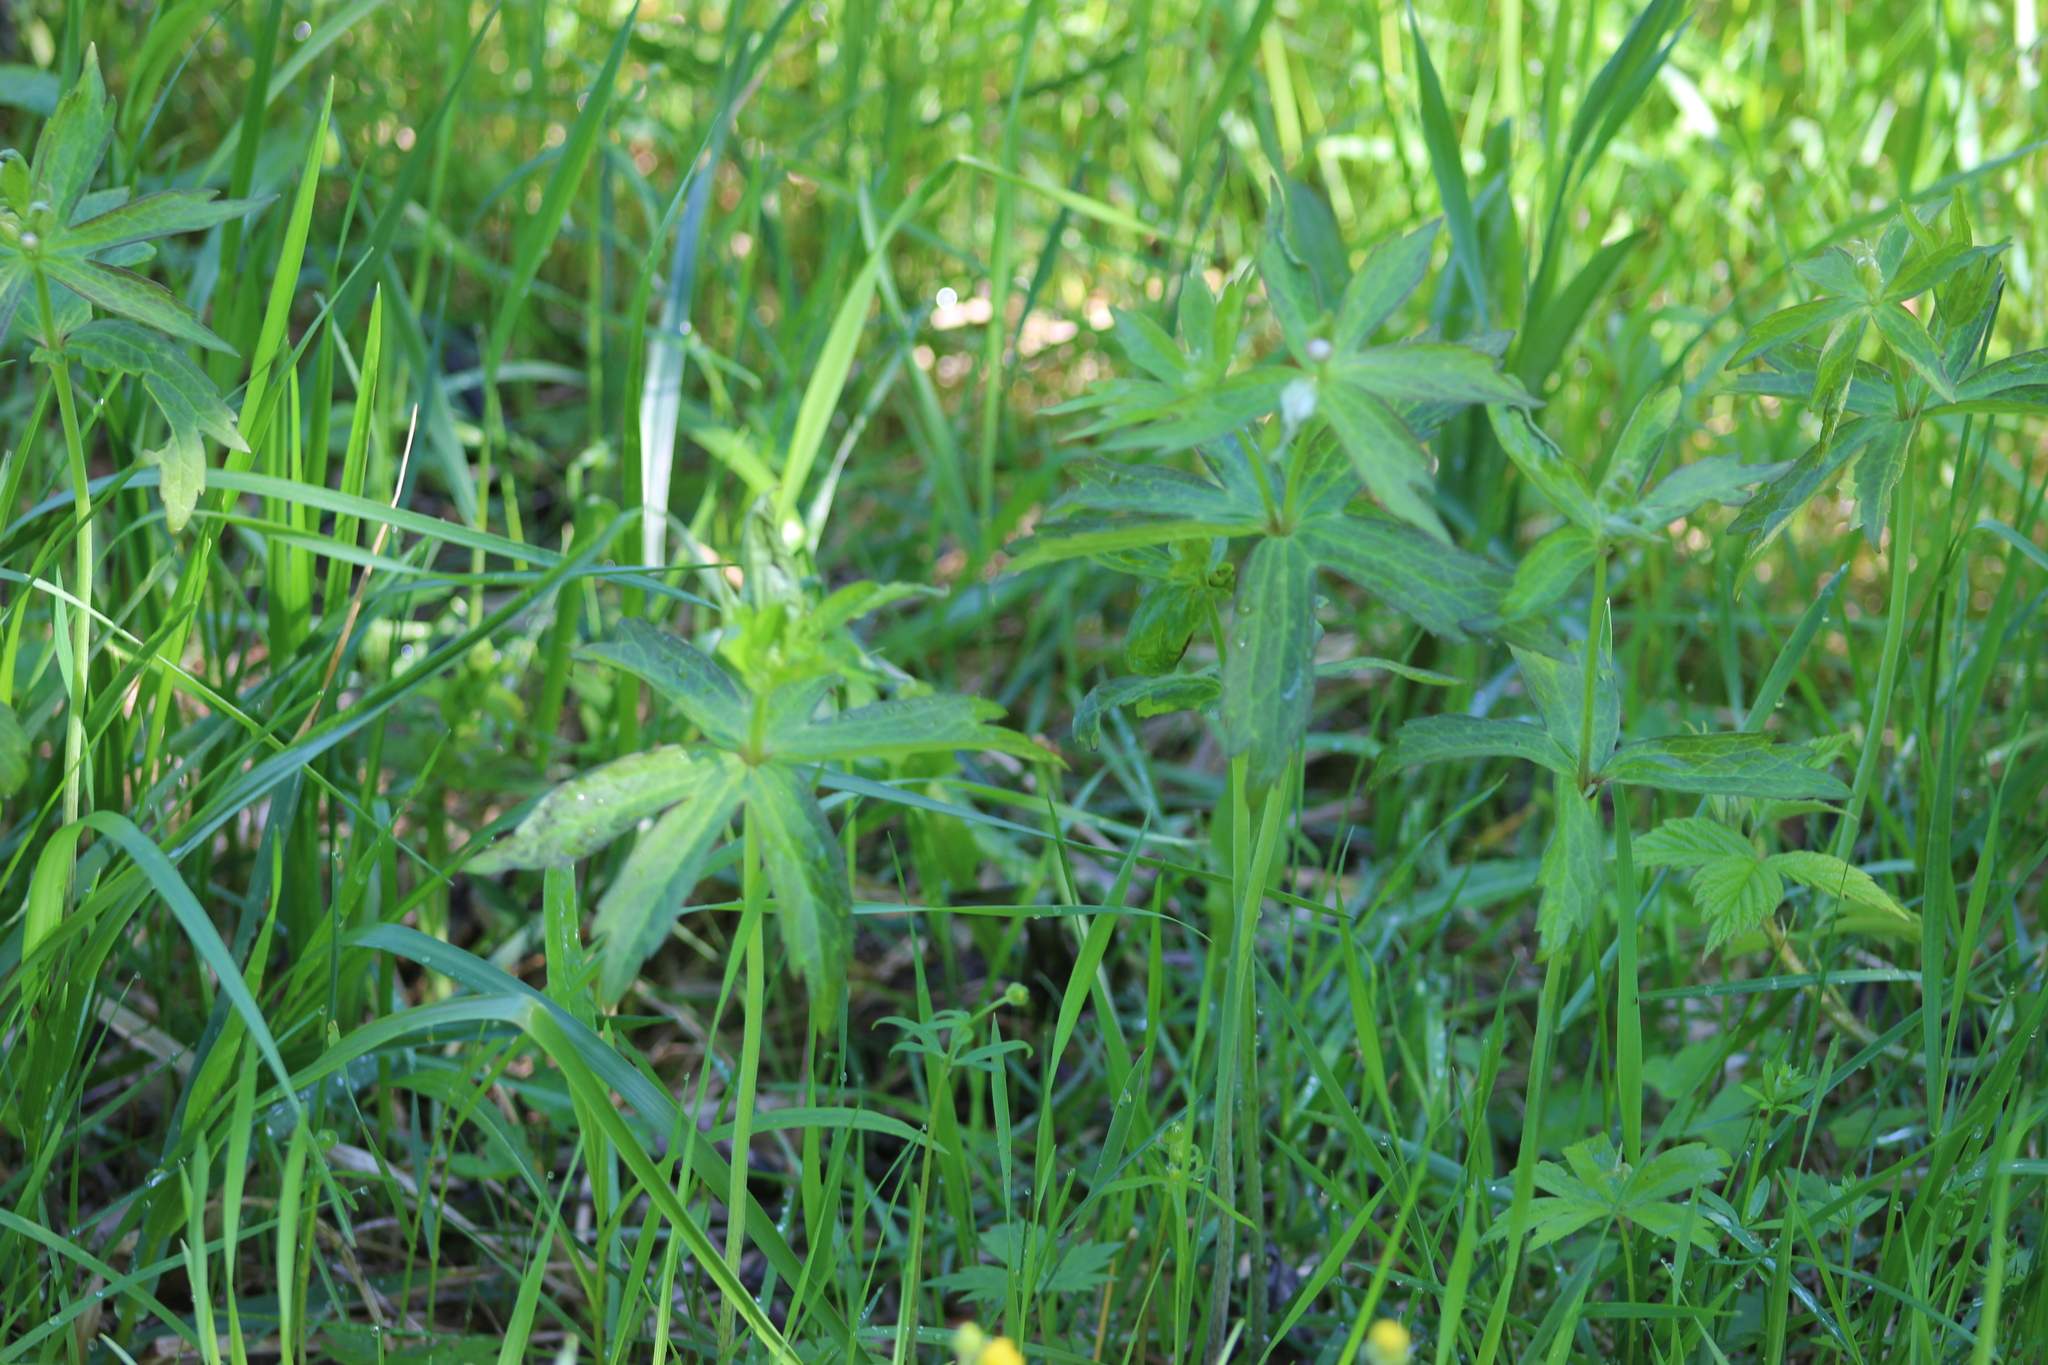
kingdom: Plantae
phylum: Tracheophyta
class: Magnoliopsida
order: Ranunculales
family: Ranunculaceae
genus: Anemonastrum
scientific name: Anemonastrum dichotomum
